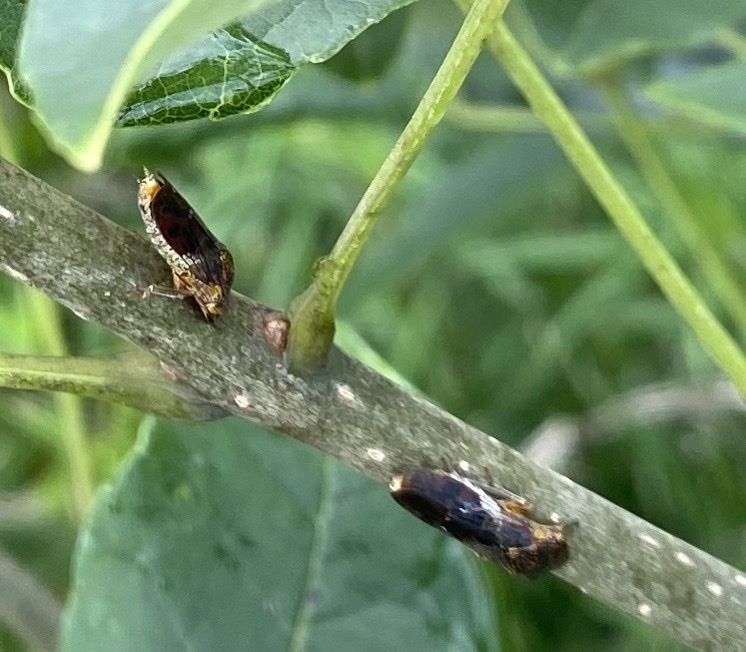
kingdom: Animalia
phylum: Arthropoda
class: Insecta
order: Hemiptera
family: Cicadellidae
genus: Homalodisca
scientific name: Homalodisca vitripennis
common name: Glassy-winged sharpshooter
